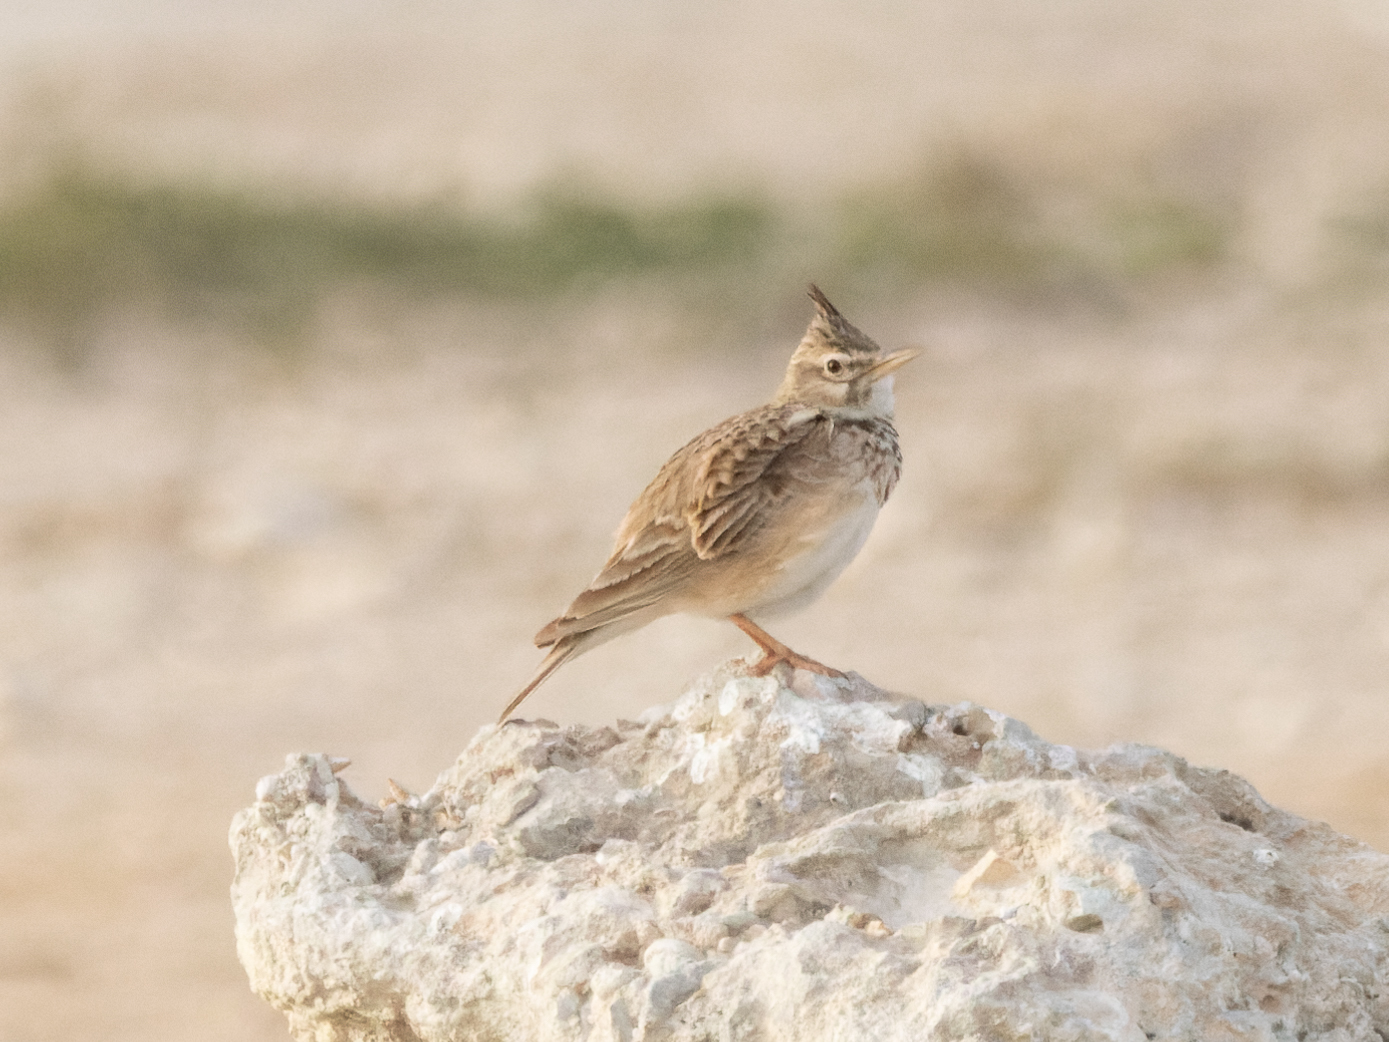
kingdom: Animalia
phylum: Chordata
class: Aves
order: Passeriformes
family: Alaudidae
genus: Galerida
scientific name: Galerida cristata
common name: Crested lark
